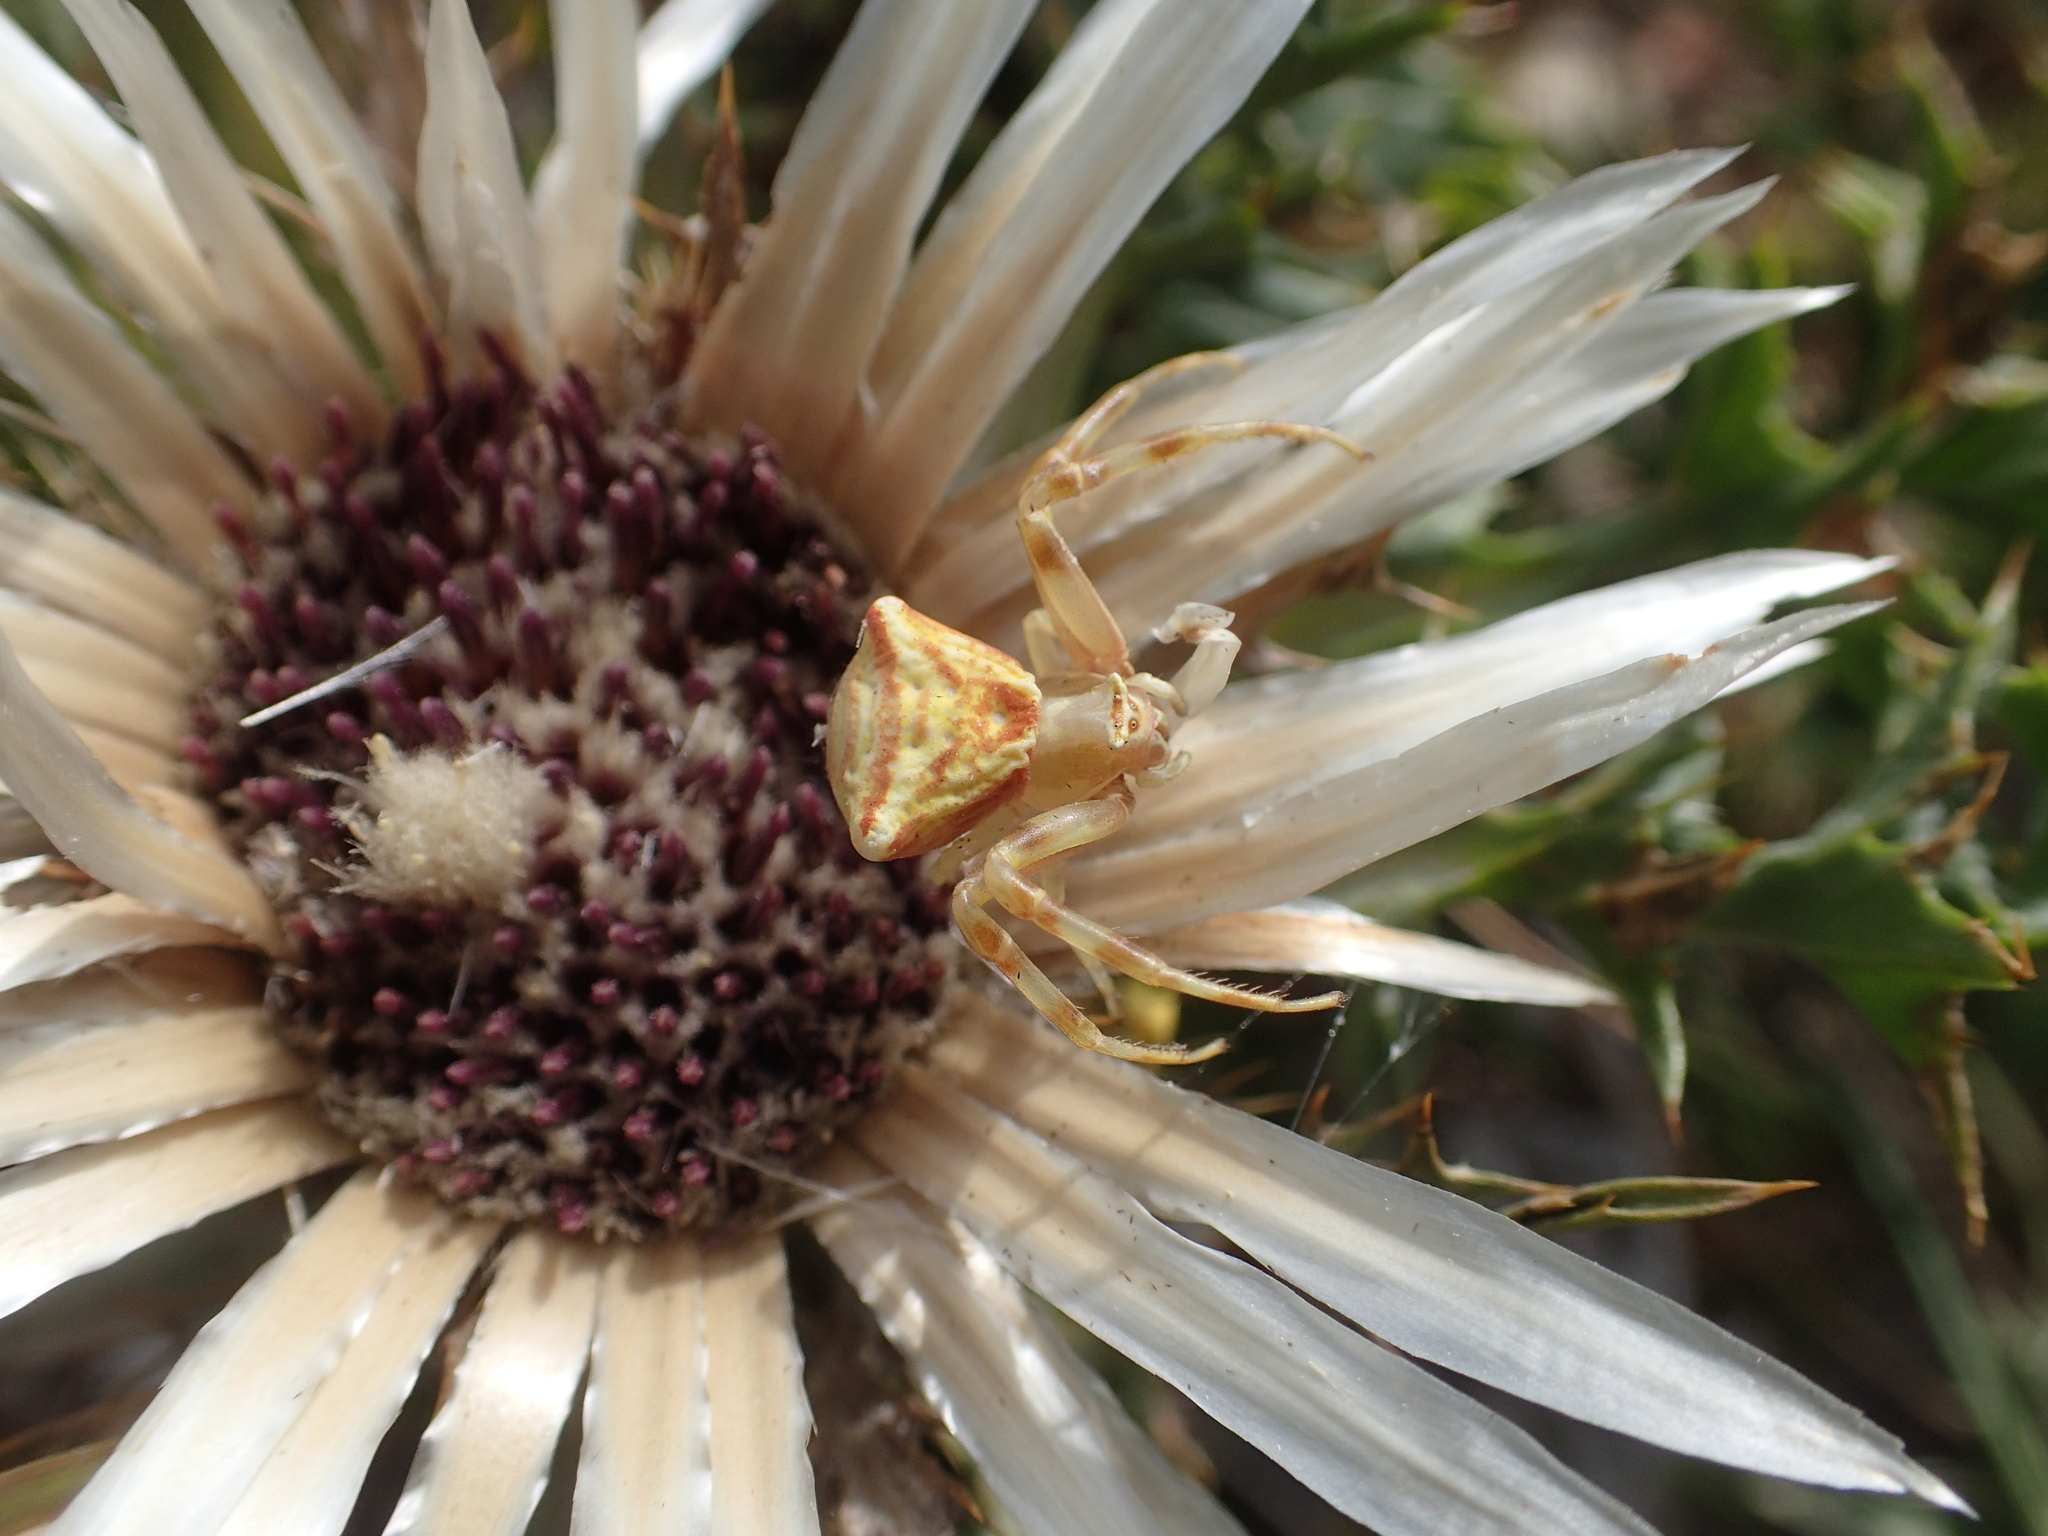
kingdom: Animalia
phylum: Arthropoda
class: Arachnida
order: Araneae
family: Thomisidae
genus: Thomisus
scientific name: Thomisus onustus
